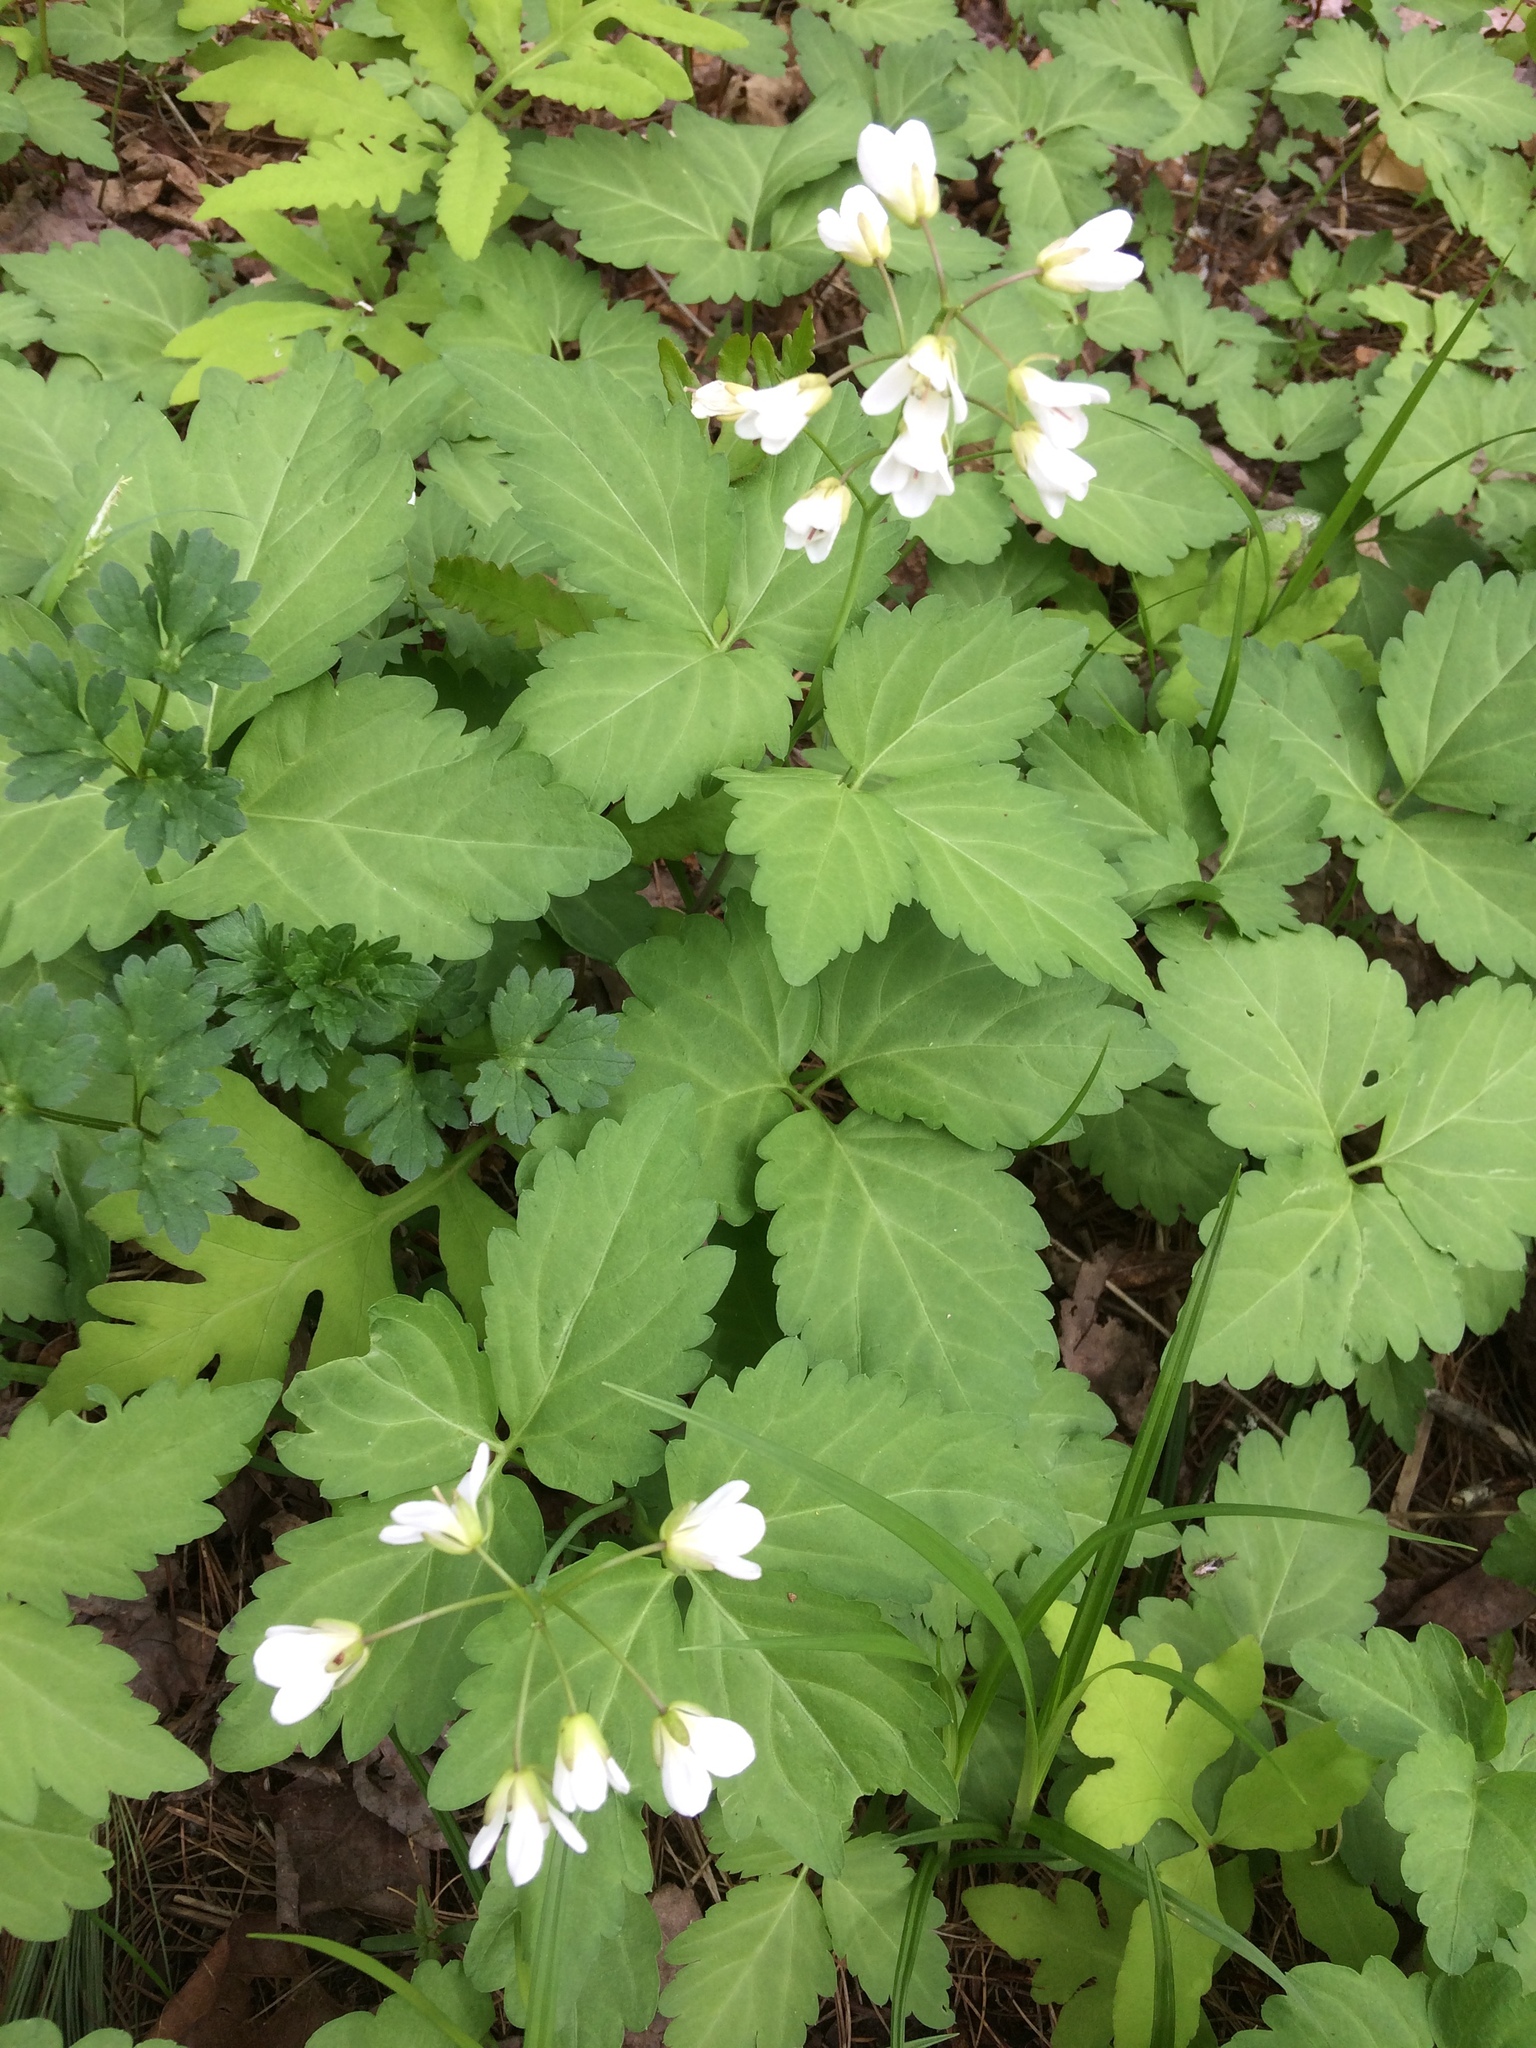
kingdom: Plantae
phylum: Tracheophyta
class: Magnoliopsida
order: Brassicales
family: Brassicaceae
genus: Cardamine
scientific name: Cardamine diphylla
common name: Broad-leaved toothwort
